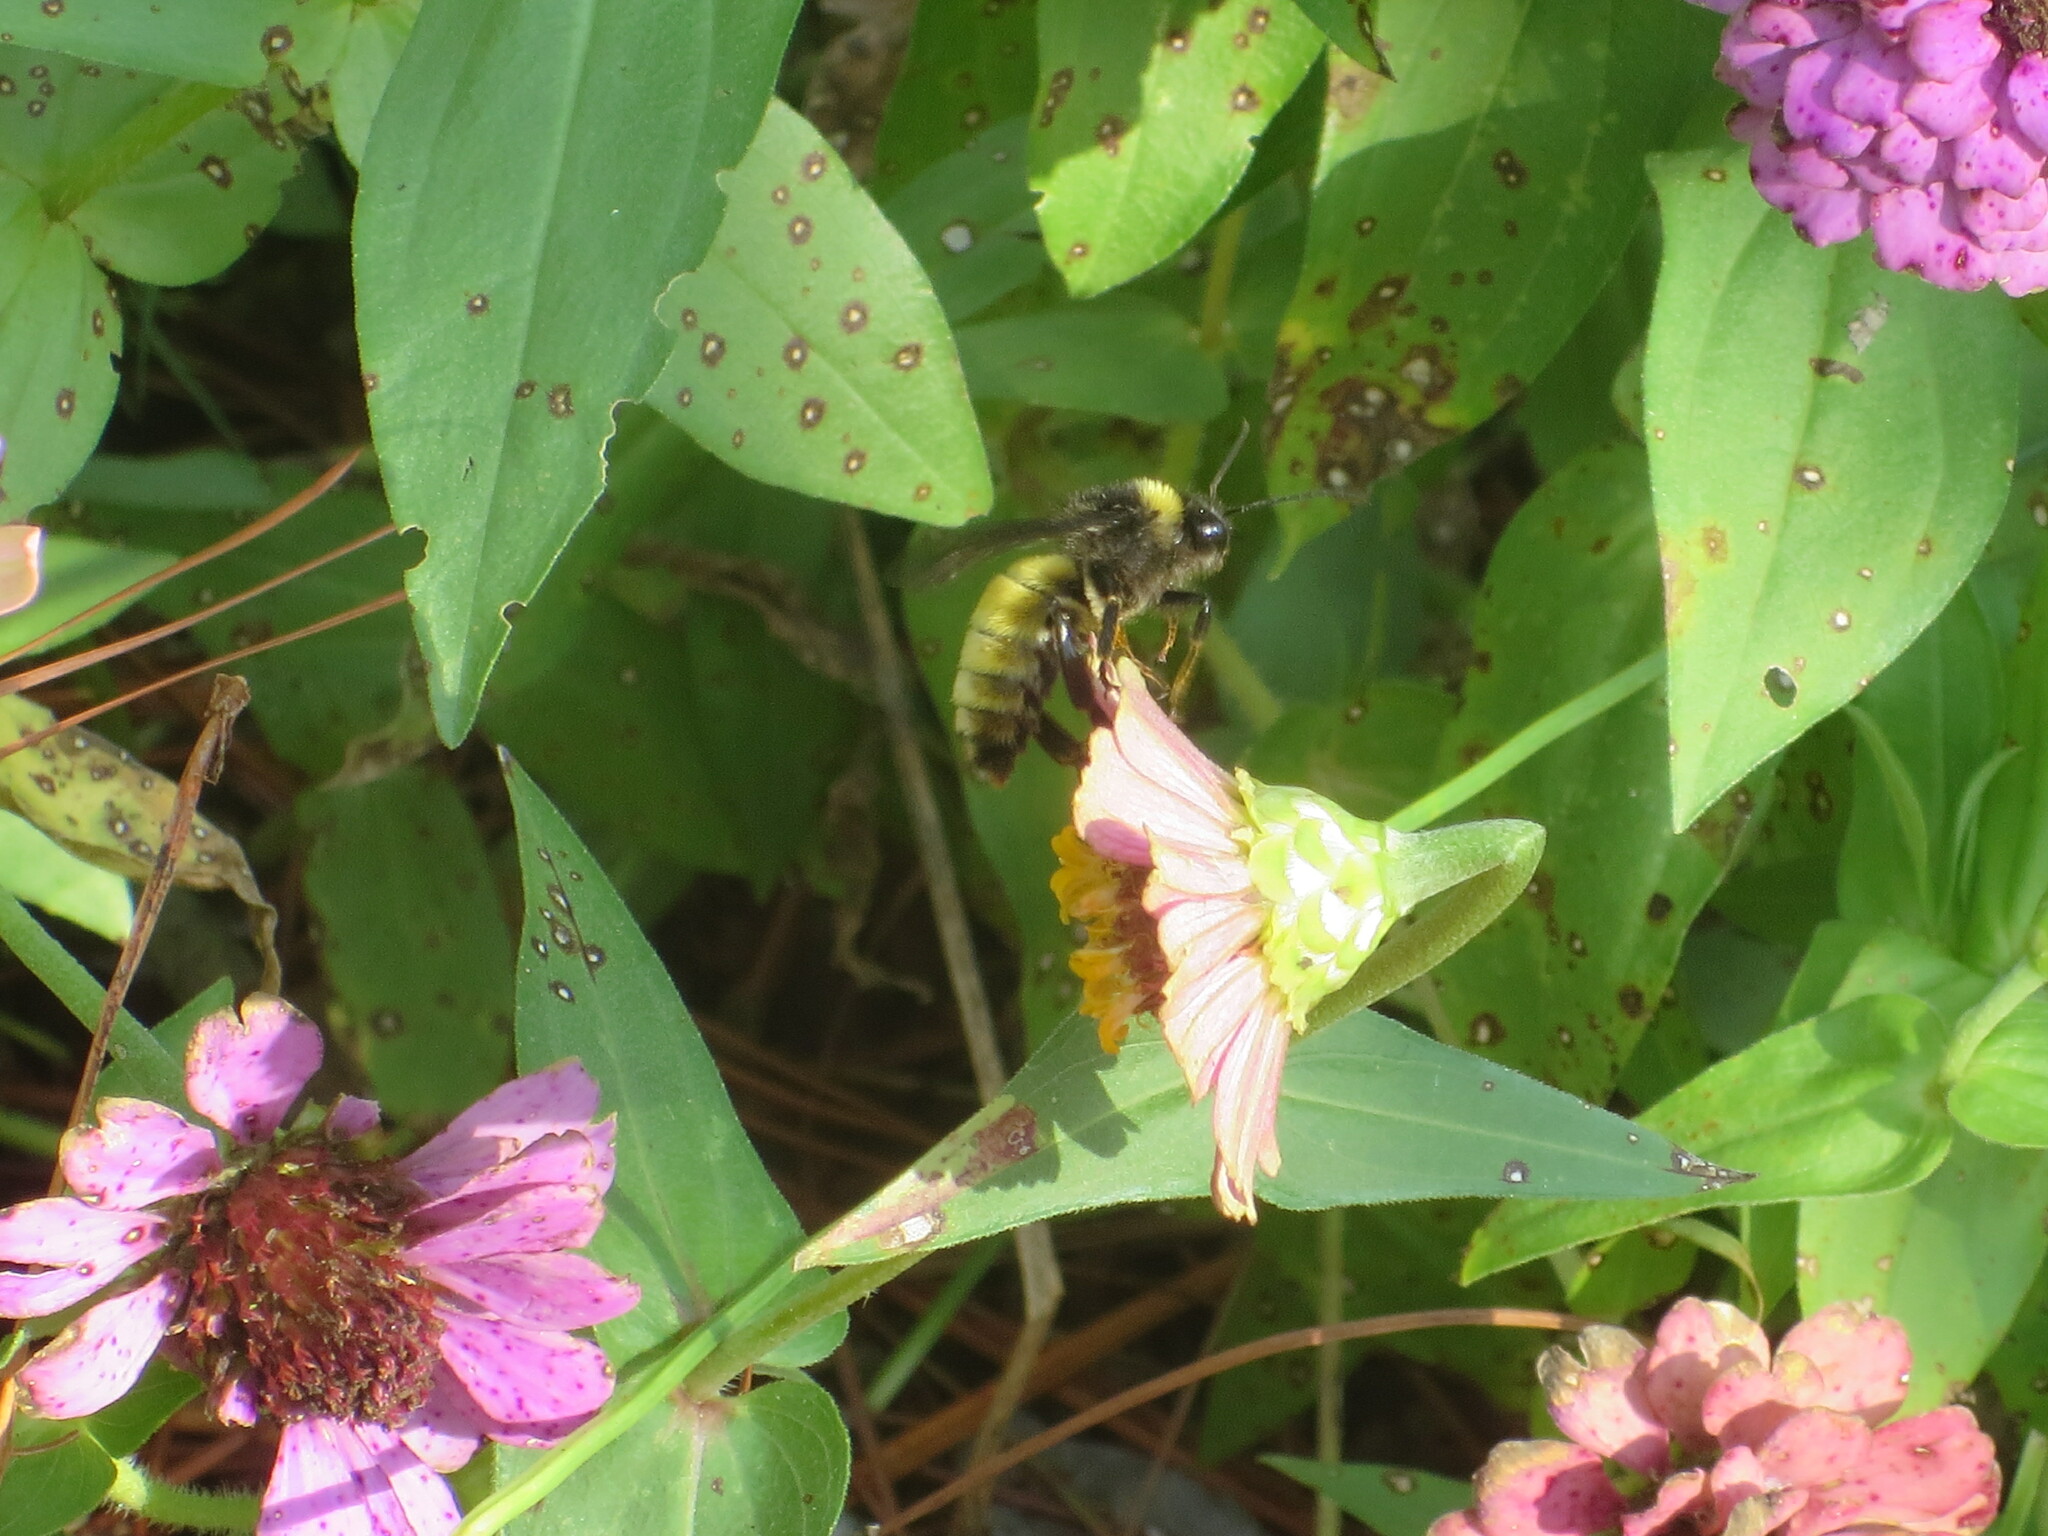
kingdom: Animalia
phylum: Arthropoda
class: Insecta
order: Hymenoptera
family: Apidae
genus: Bombus
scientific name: Bombus pensylvanicus
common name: Bumble bee
